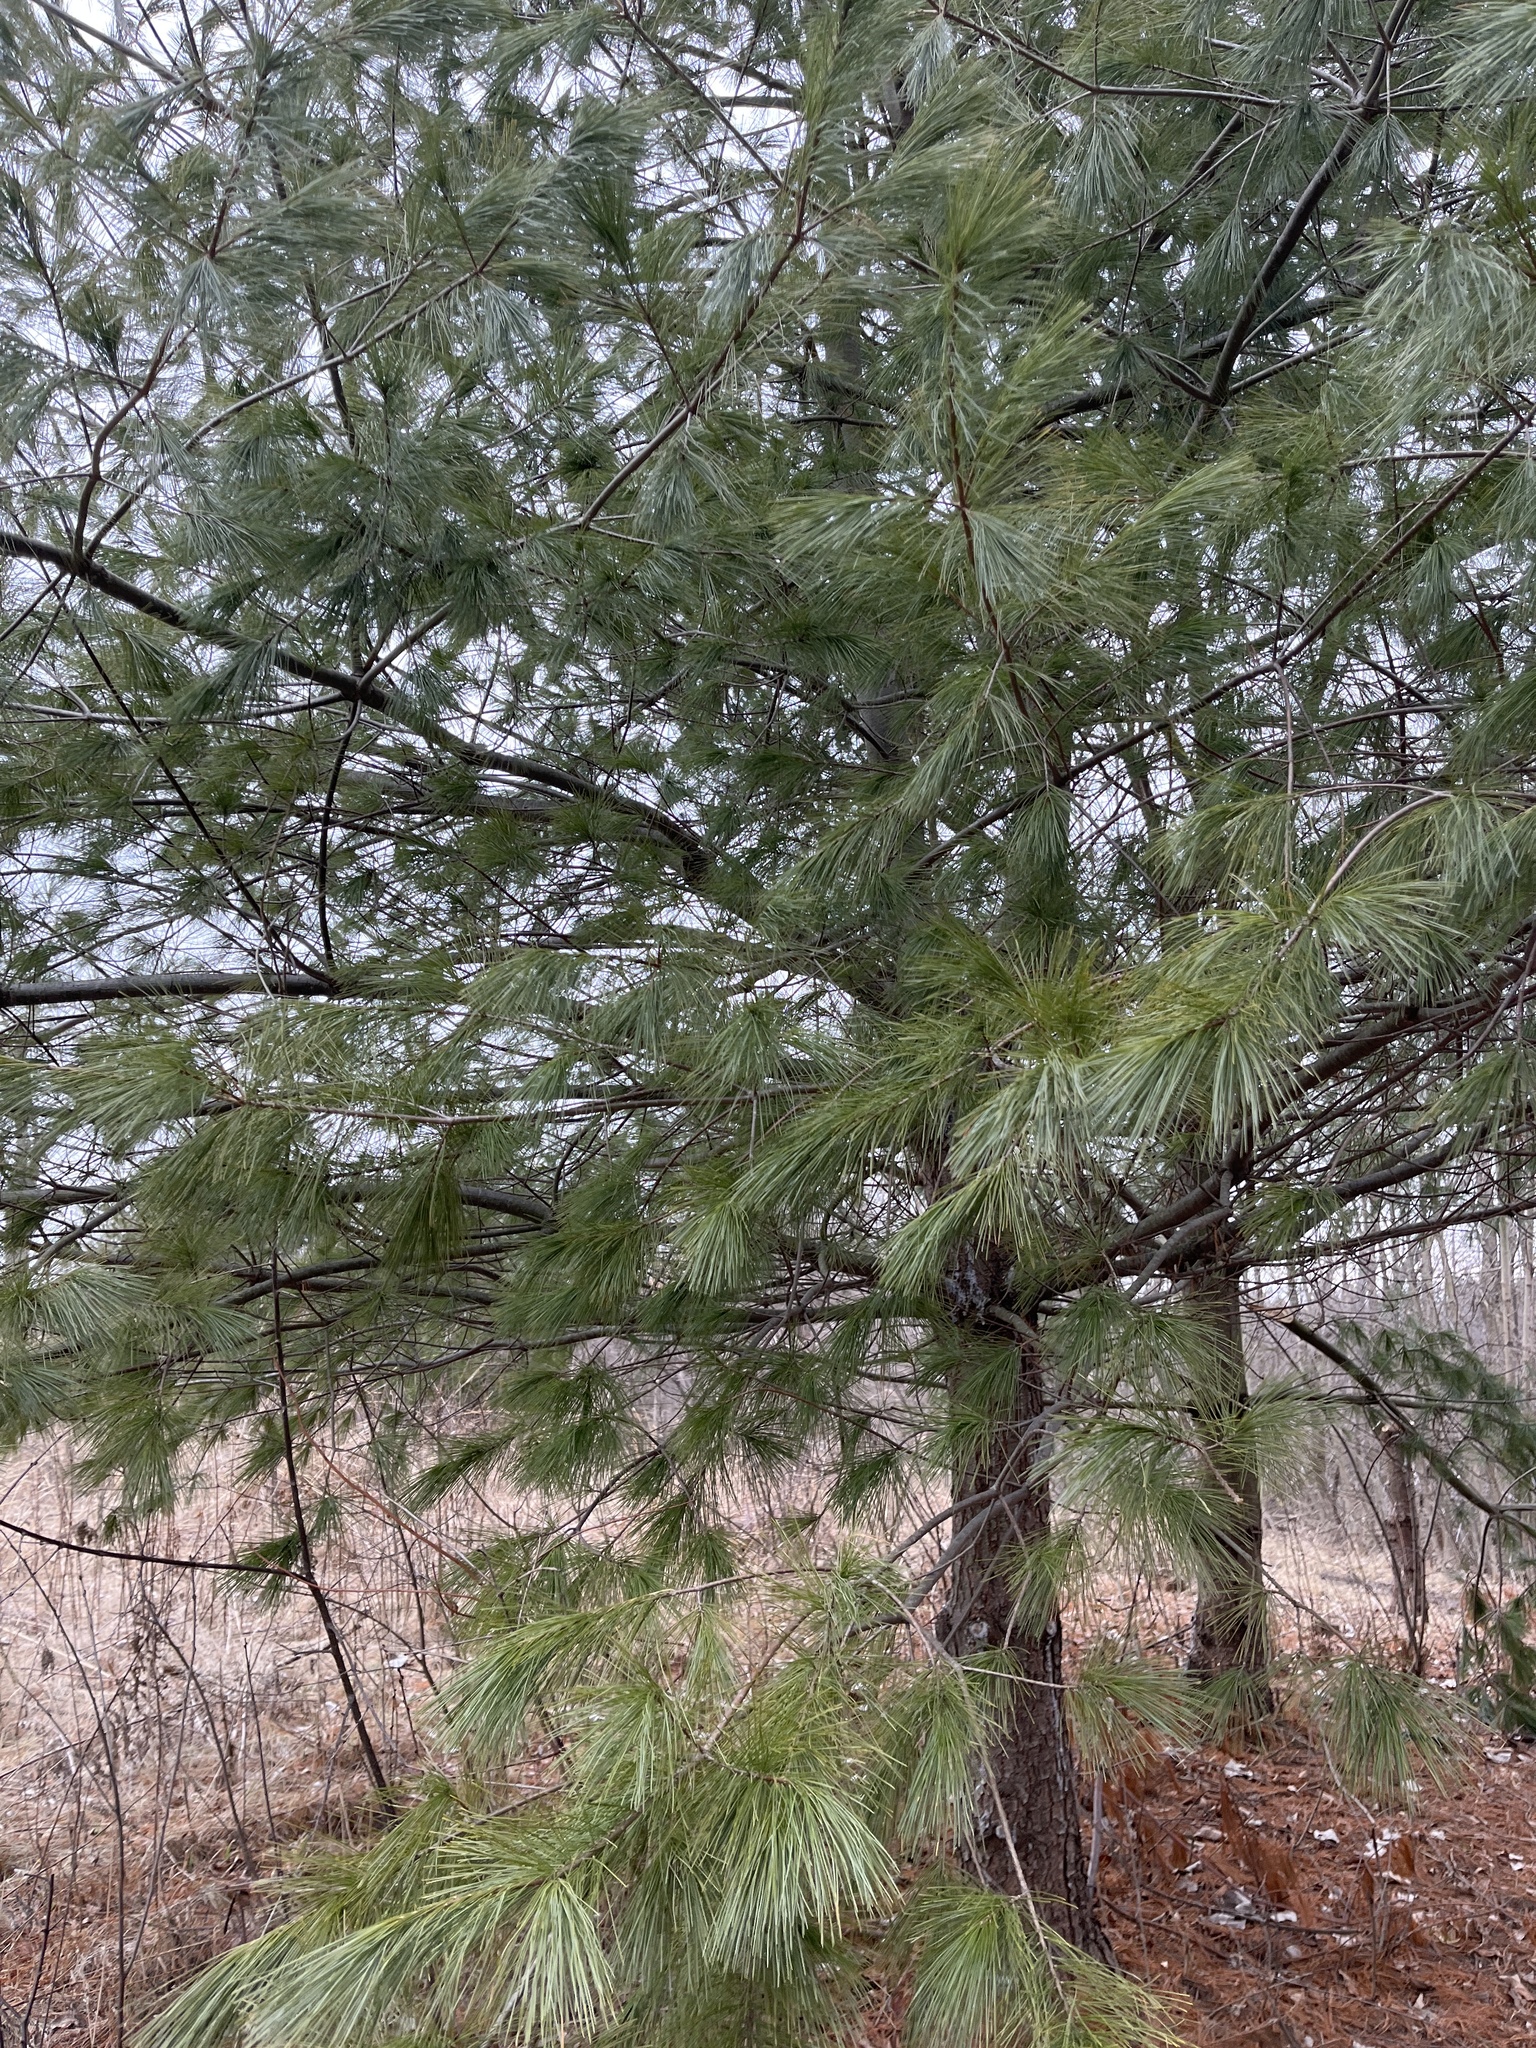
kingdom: Plantae
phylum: Tracheophyta
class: Pinopsida
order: Pinales
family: Pinaceae
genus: Pinus
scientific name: Pinus strobus
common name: Weymouth pine
